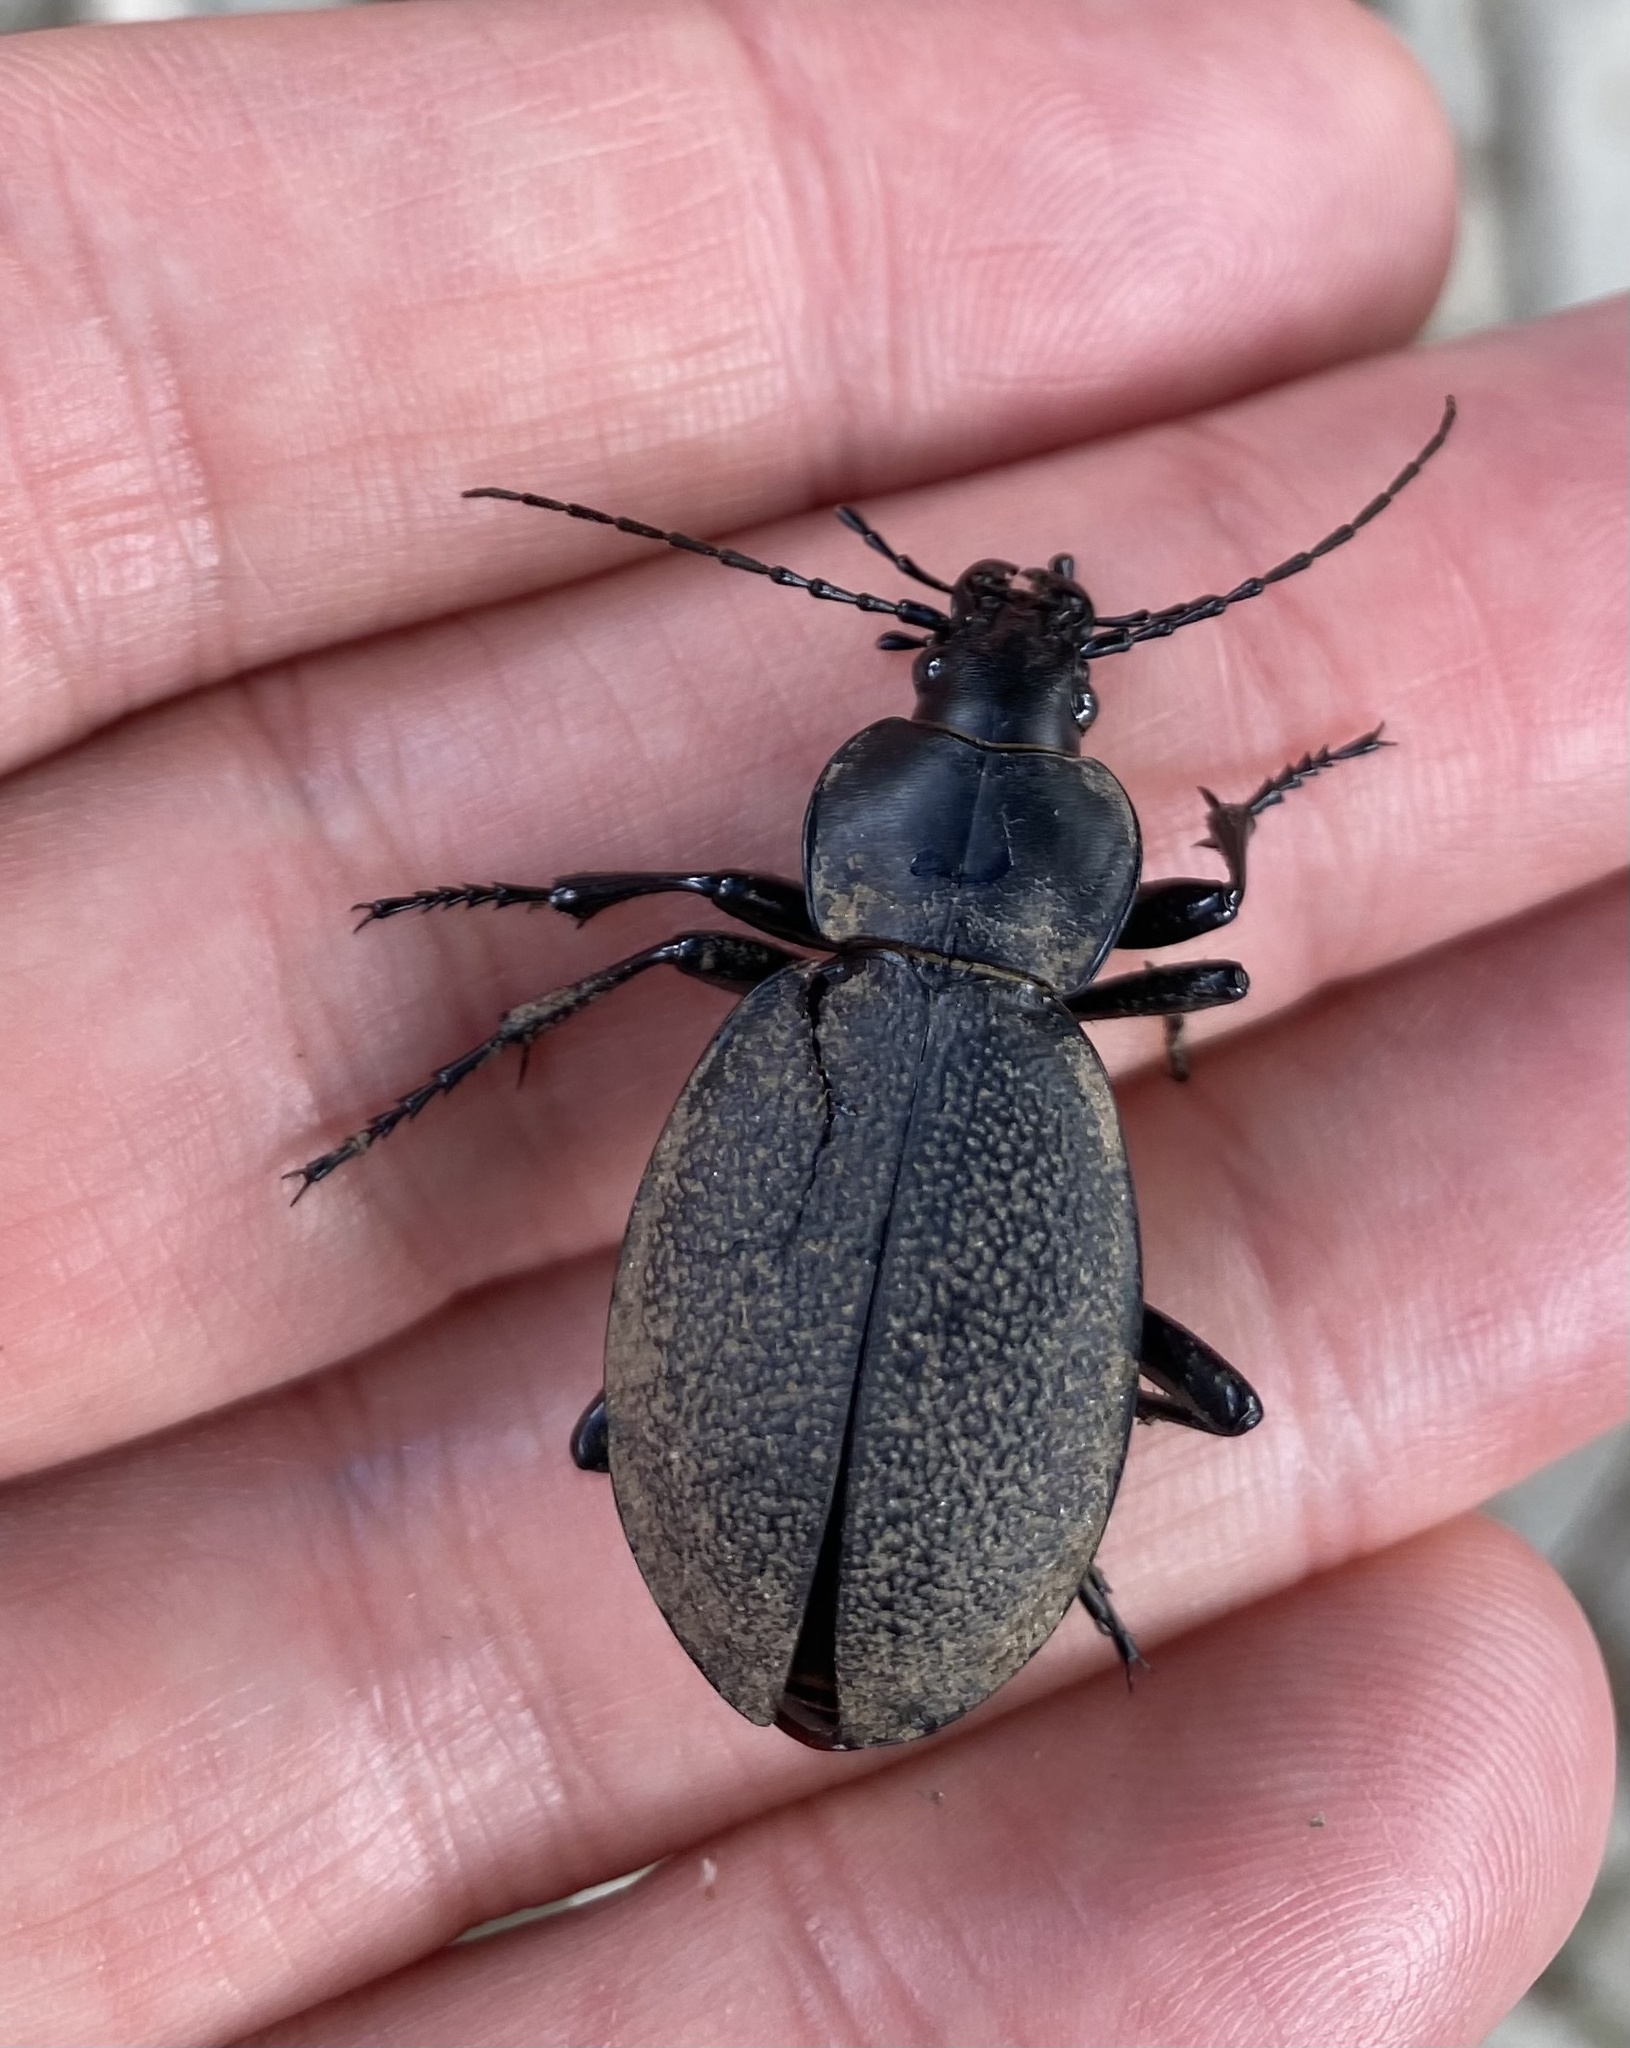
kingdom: Animalia
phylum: Arthropoda
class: Insecta
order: Coleoptera
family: Carabidae
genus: Carabus
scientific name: Carabus coriaceus
